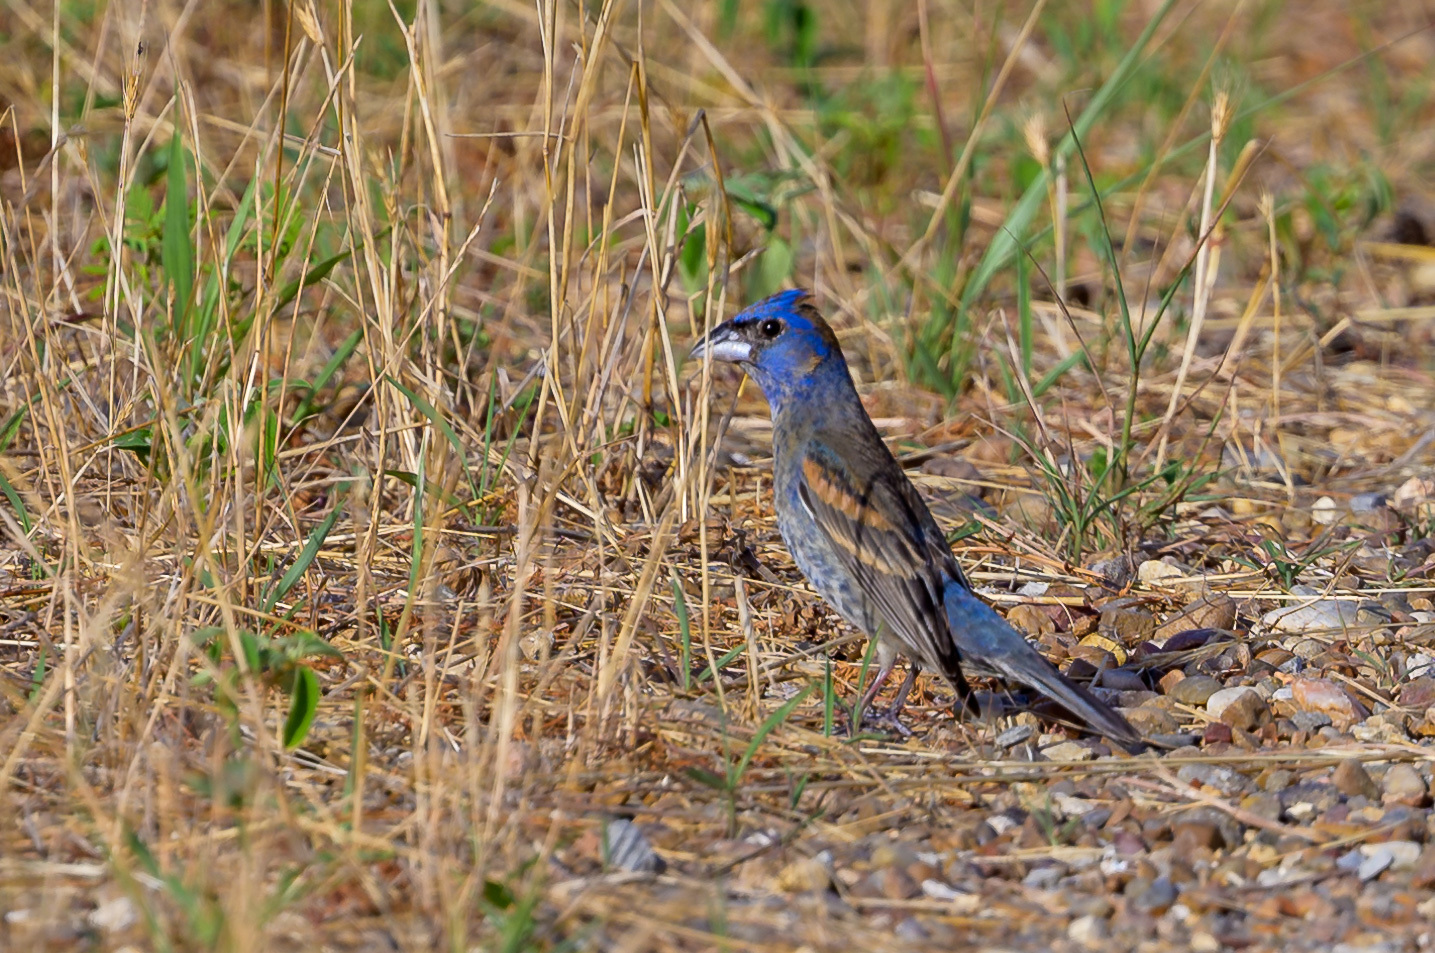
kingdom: Animalia
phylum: Chordata
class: Aves
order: Passeriformes
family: Cardinalidae
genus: Passerina
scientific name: Passerina caerulea
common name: Blue grosbeak
